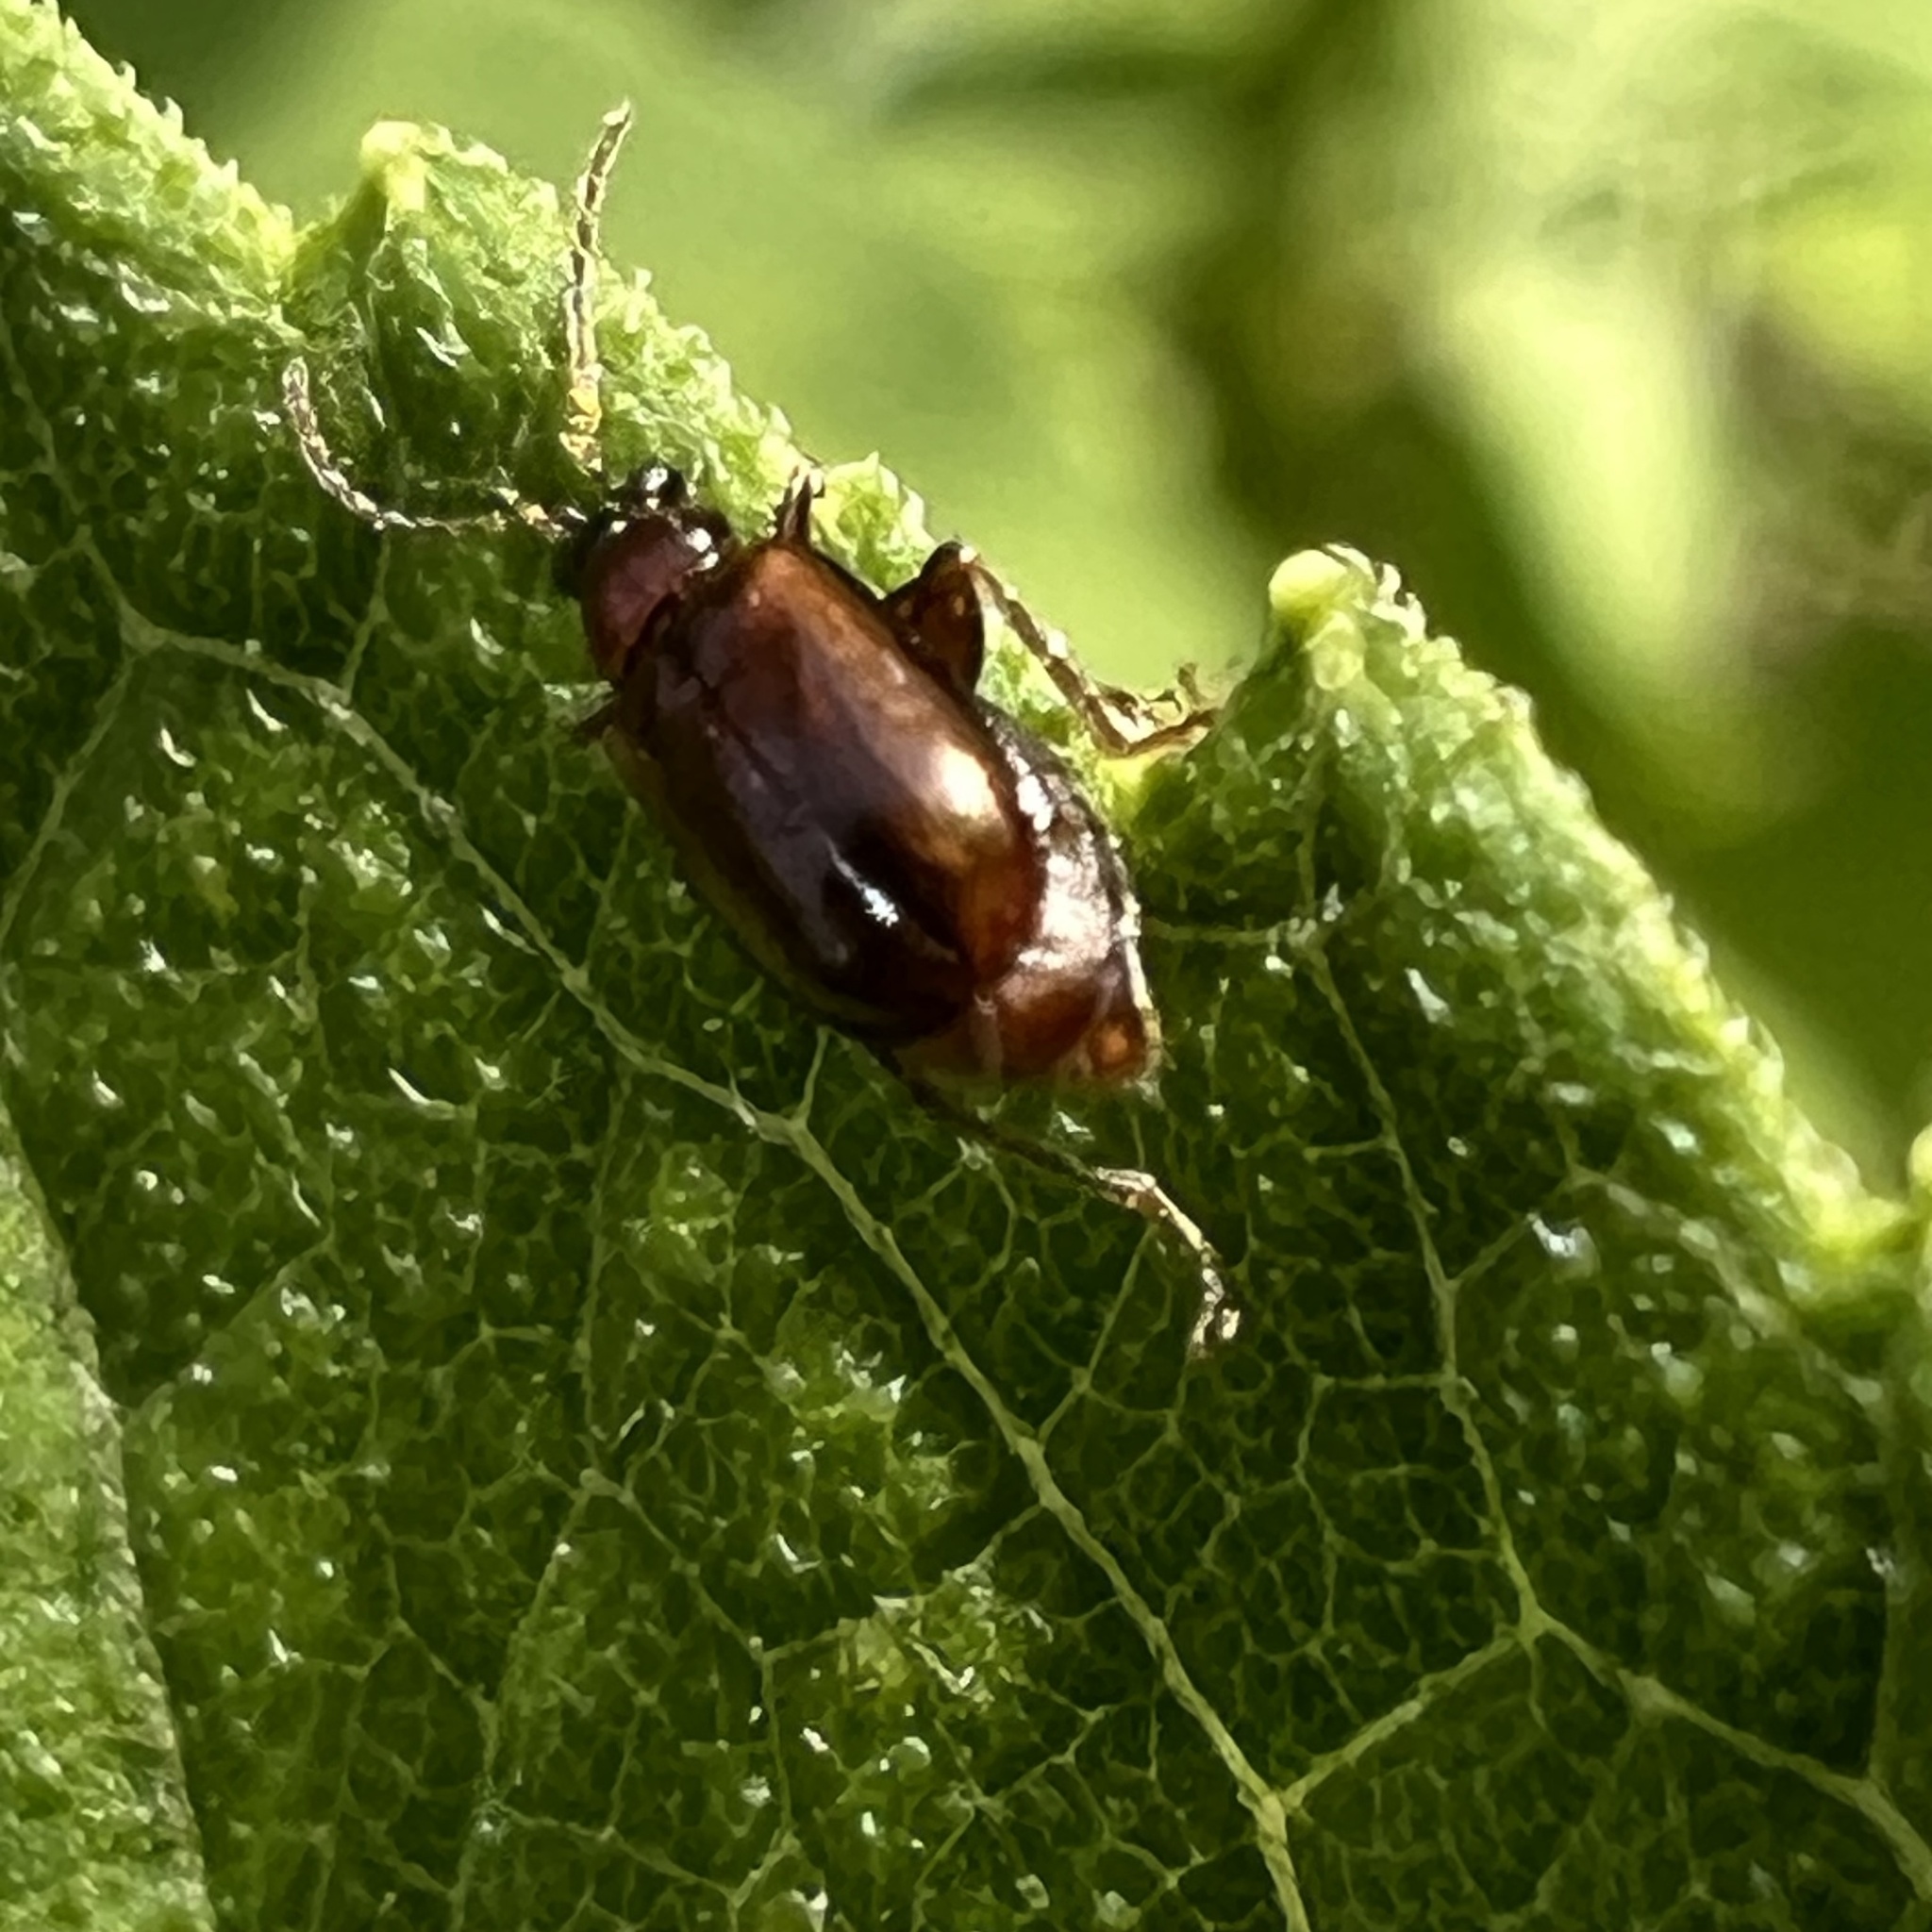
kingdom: Animalia
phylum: Arthropoda
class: Insecta
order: Coleoptera
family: Chrysomelidae
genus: Luperaltica
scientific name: Luperaltica nigripalpis
